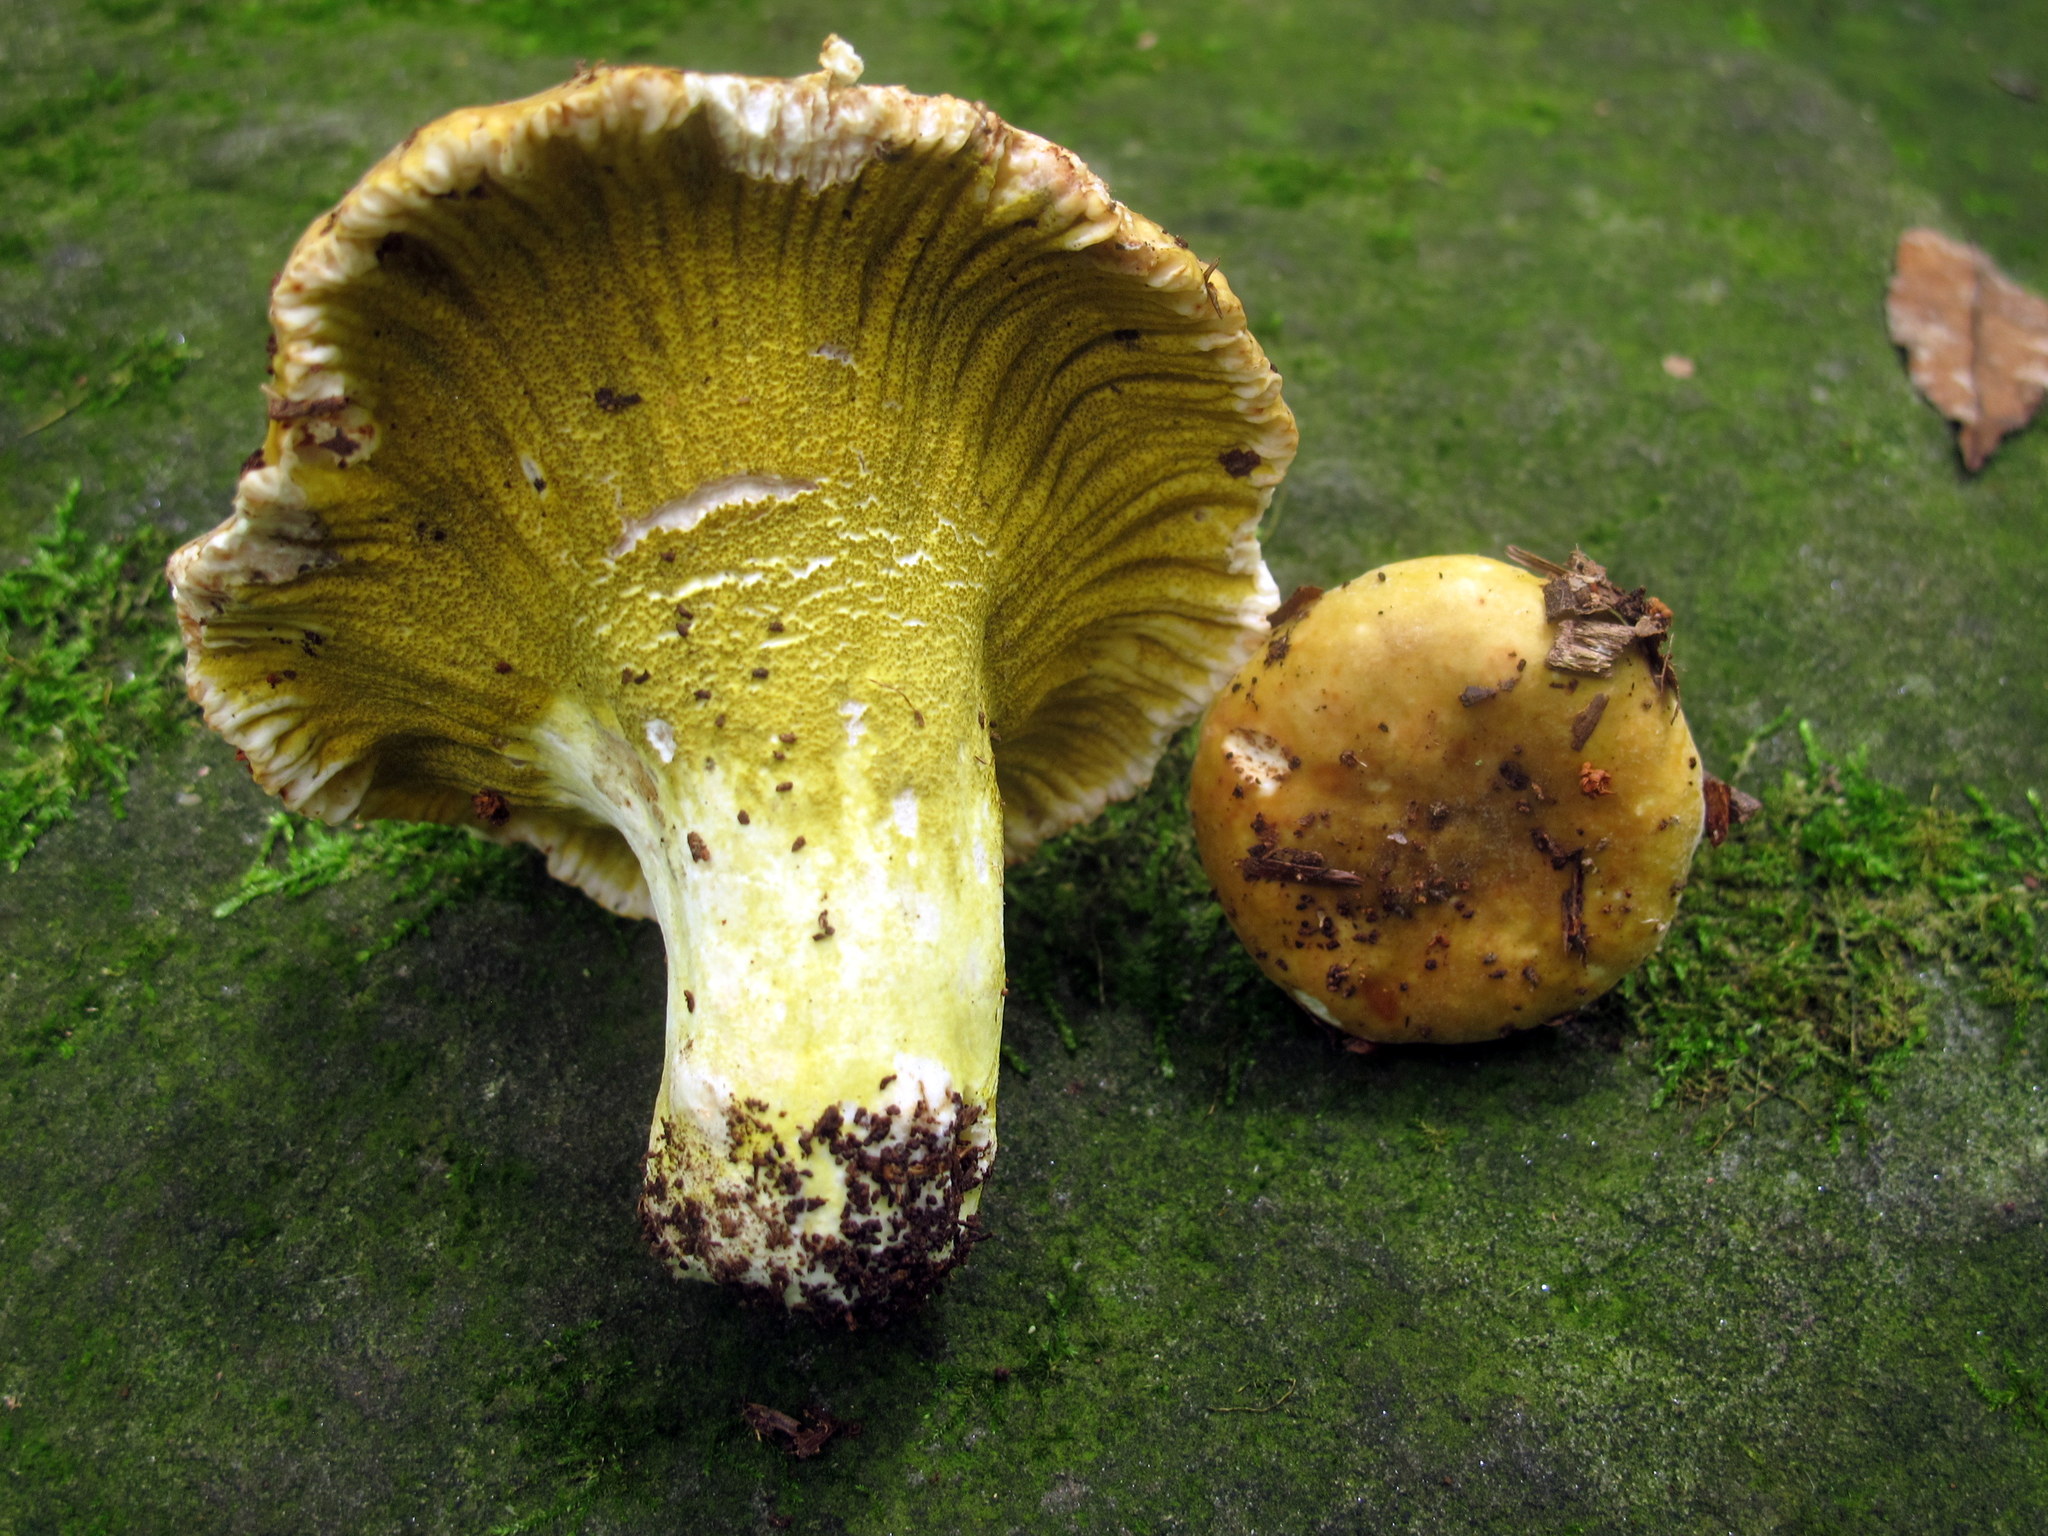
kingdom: Fungi
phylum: Ascomycota
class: Sordariomycetes
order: Hypocreales
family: Hypocreaceae
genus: Hypomyces
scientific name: Hypomyces luteovirens
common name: Yellow-green russula mold
